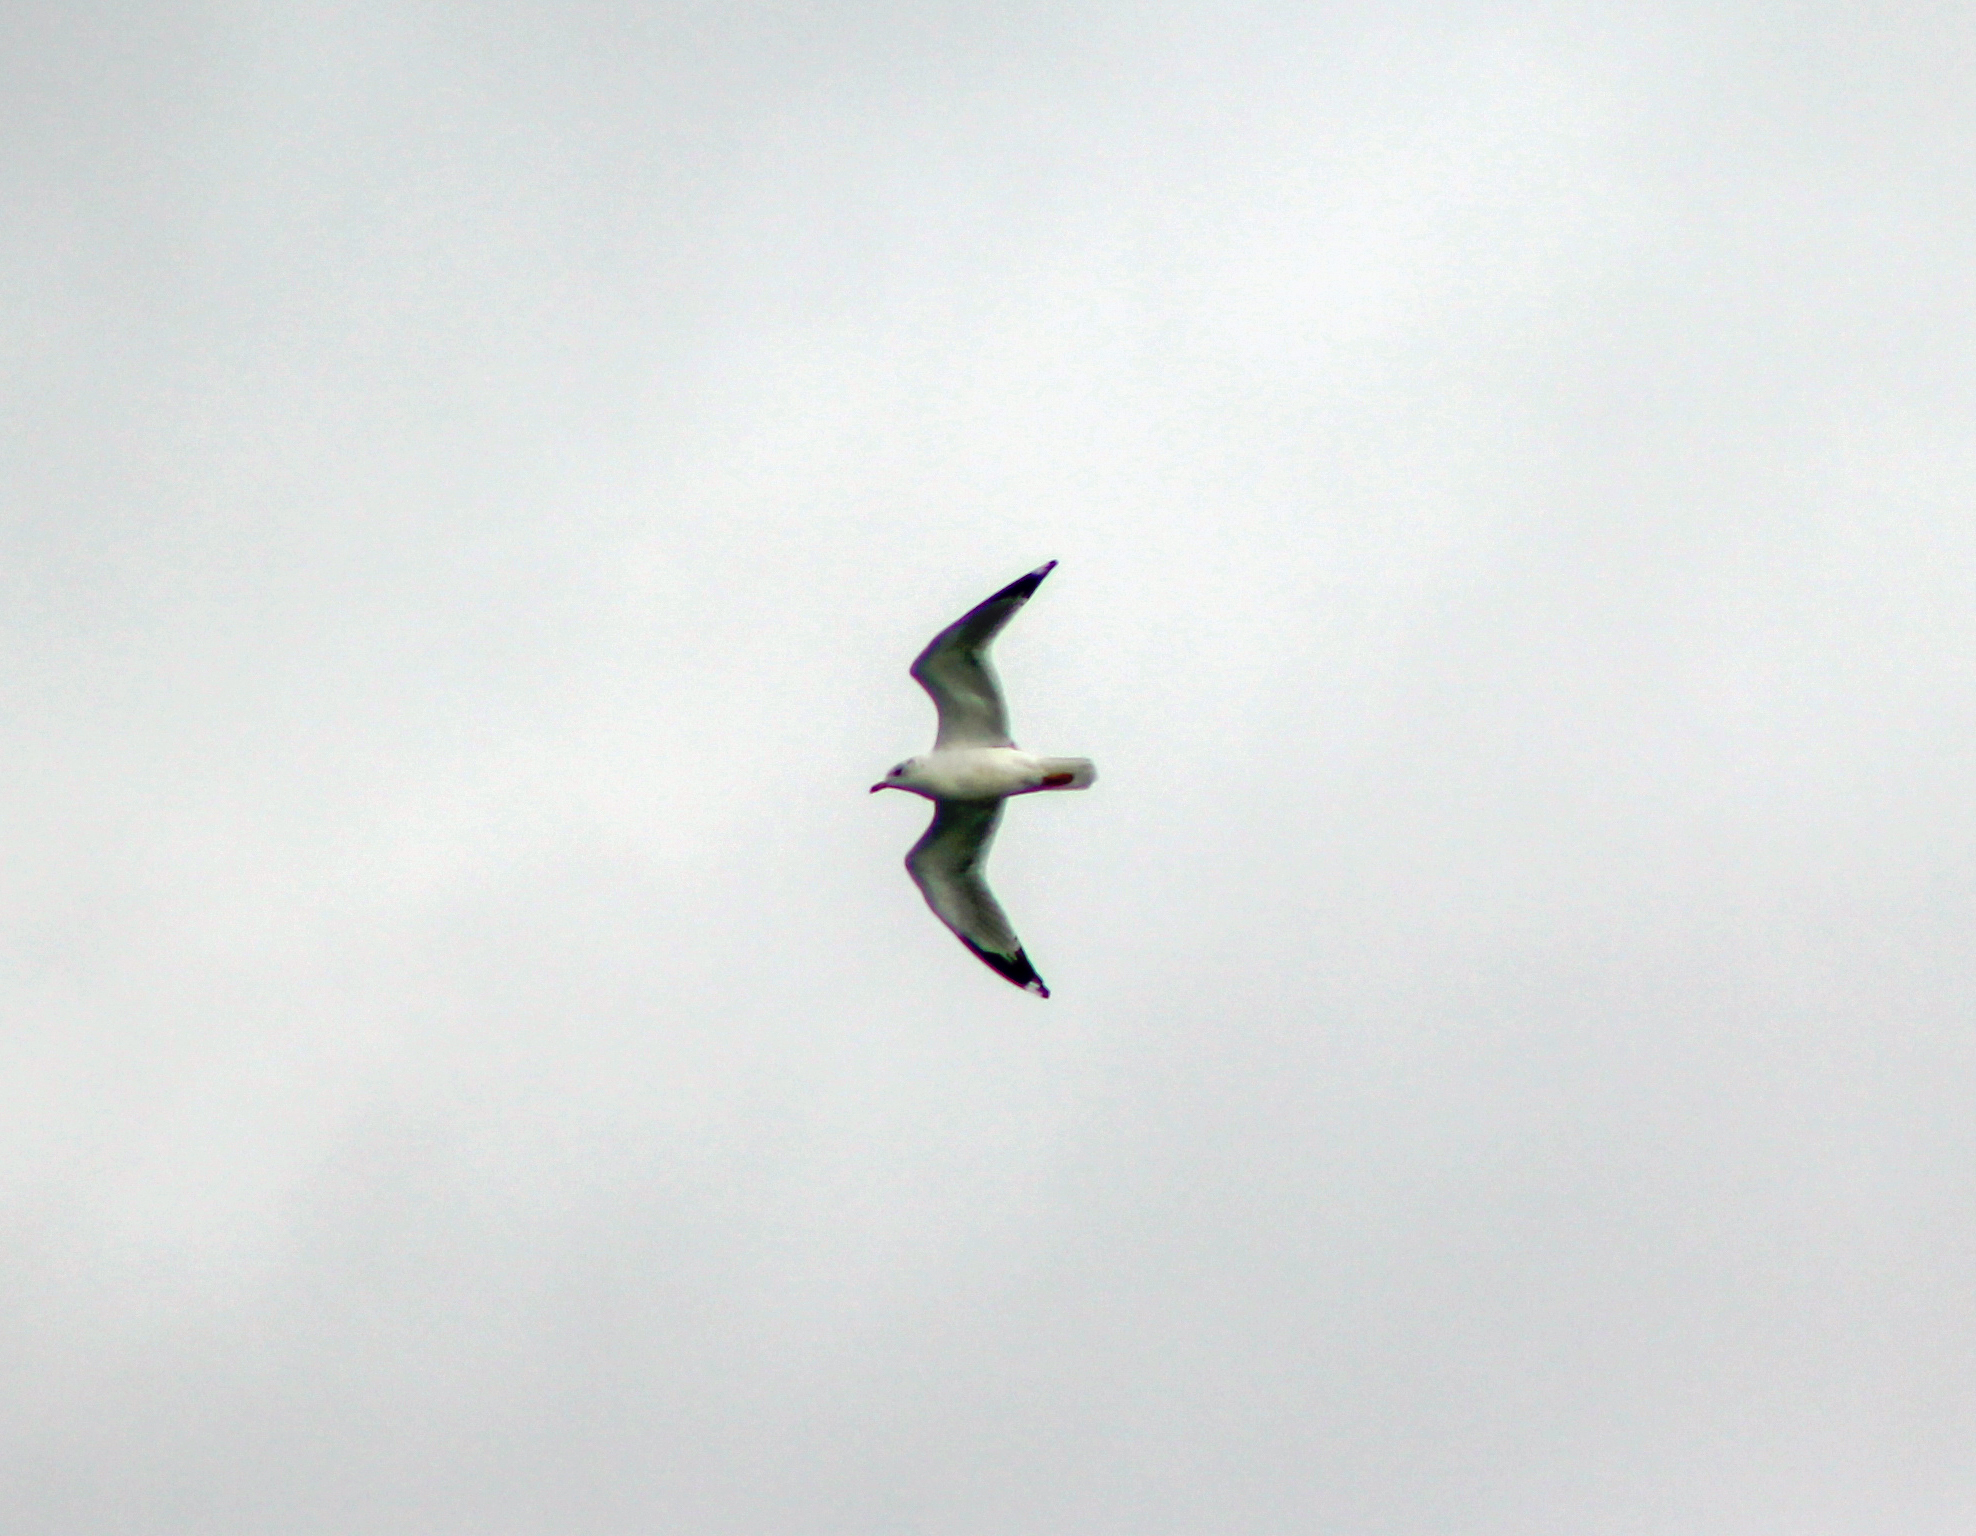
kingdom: Animalia
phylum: Chordata
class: Aves
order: Charadriiformes
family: Laridae
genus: Larus
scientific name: Larus delawarensis
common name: Ring-billed gull
